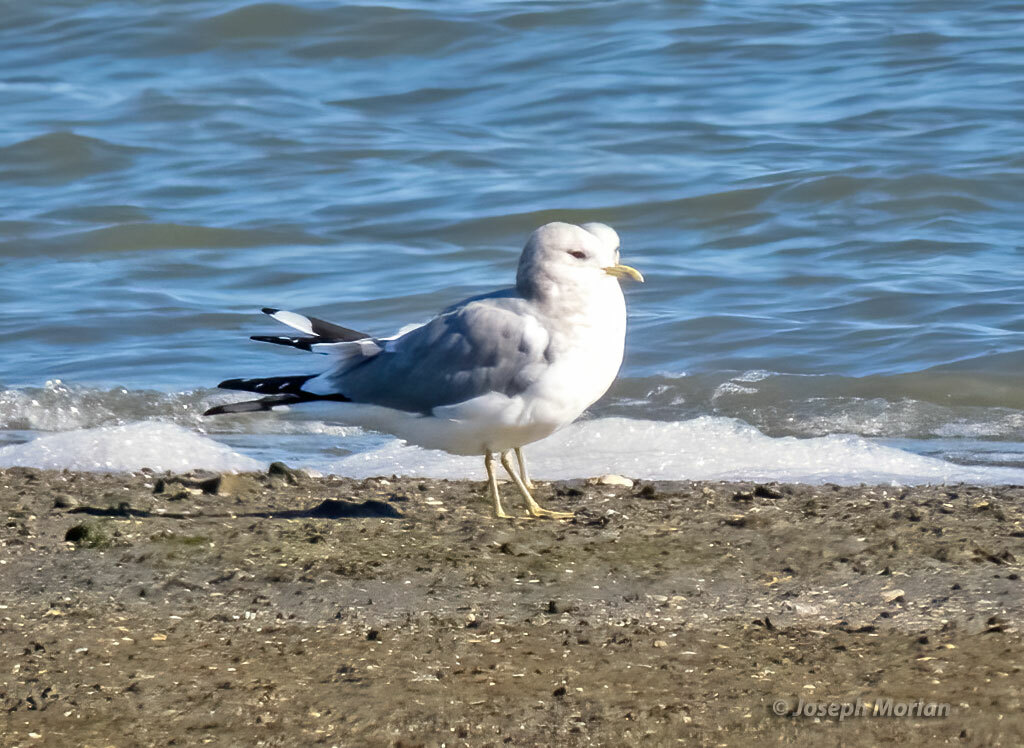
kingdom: Animalia
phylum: Chordata
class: Aves
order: Charadriiformes
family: Laridae
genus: Larus
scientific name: Larus brachyrhynchus
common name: Short-billed gull
